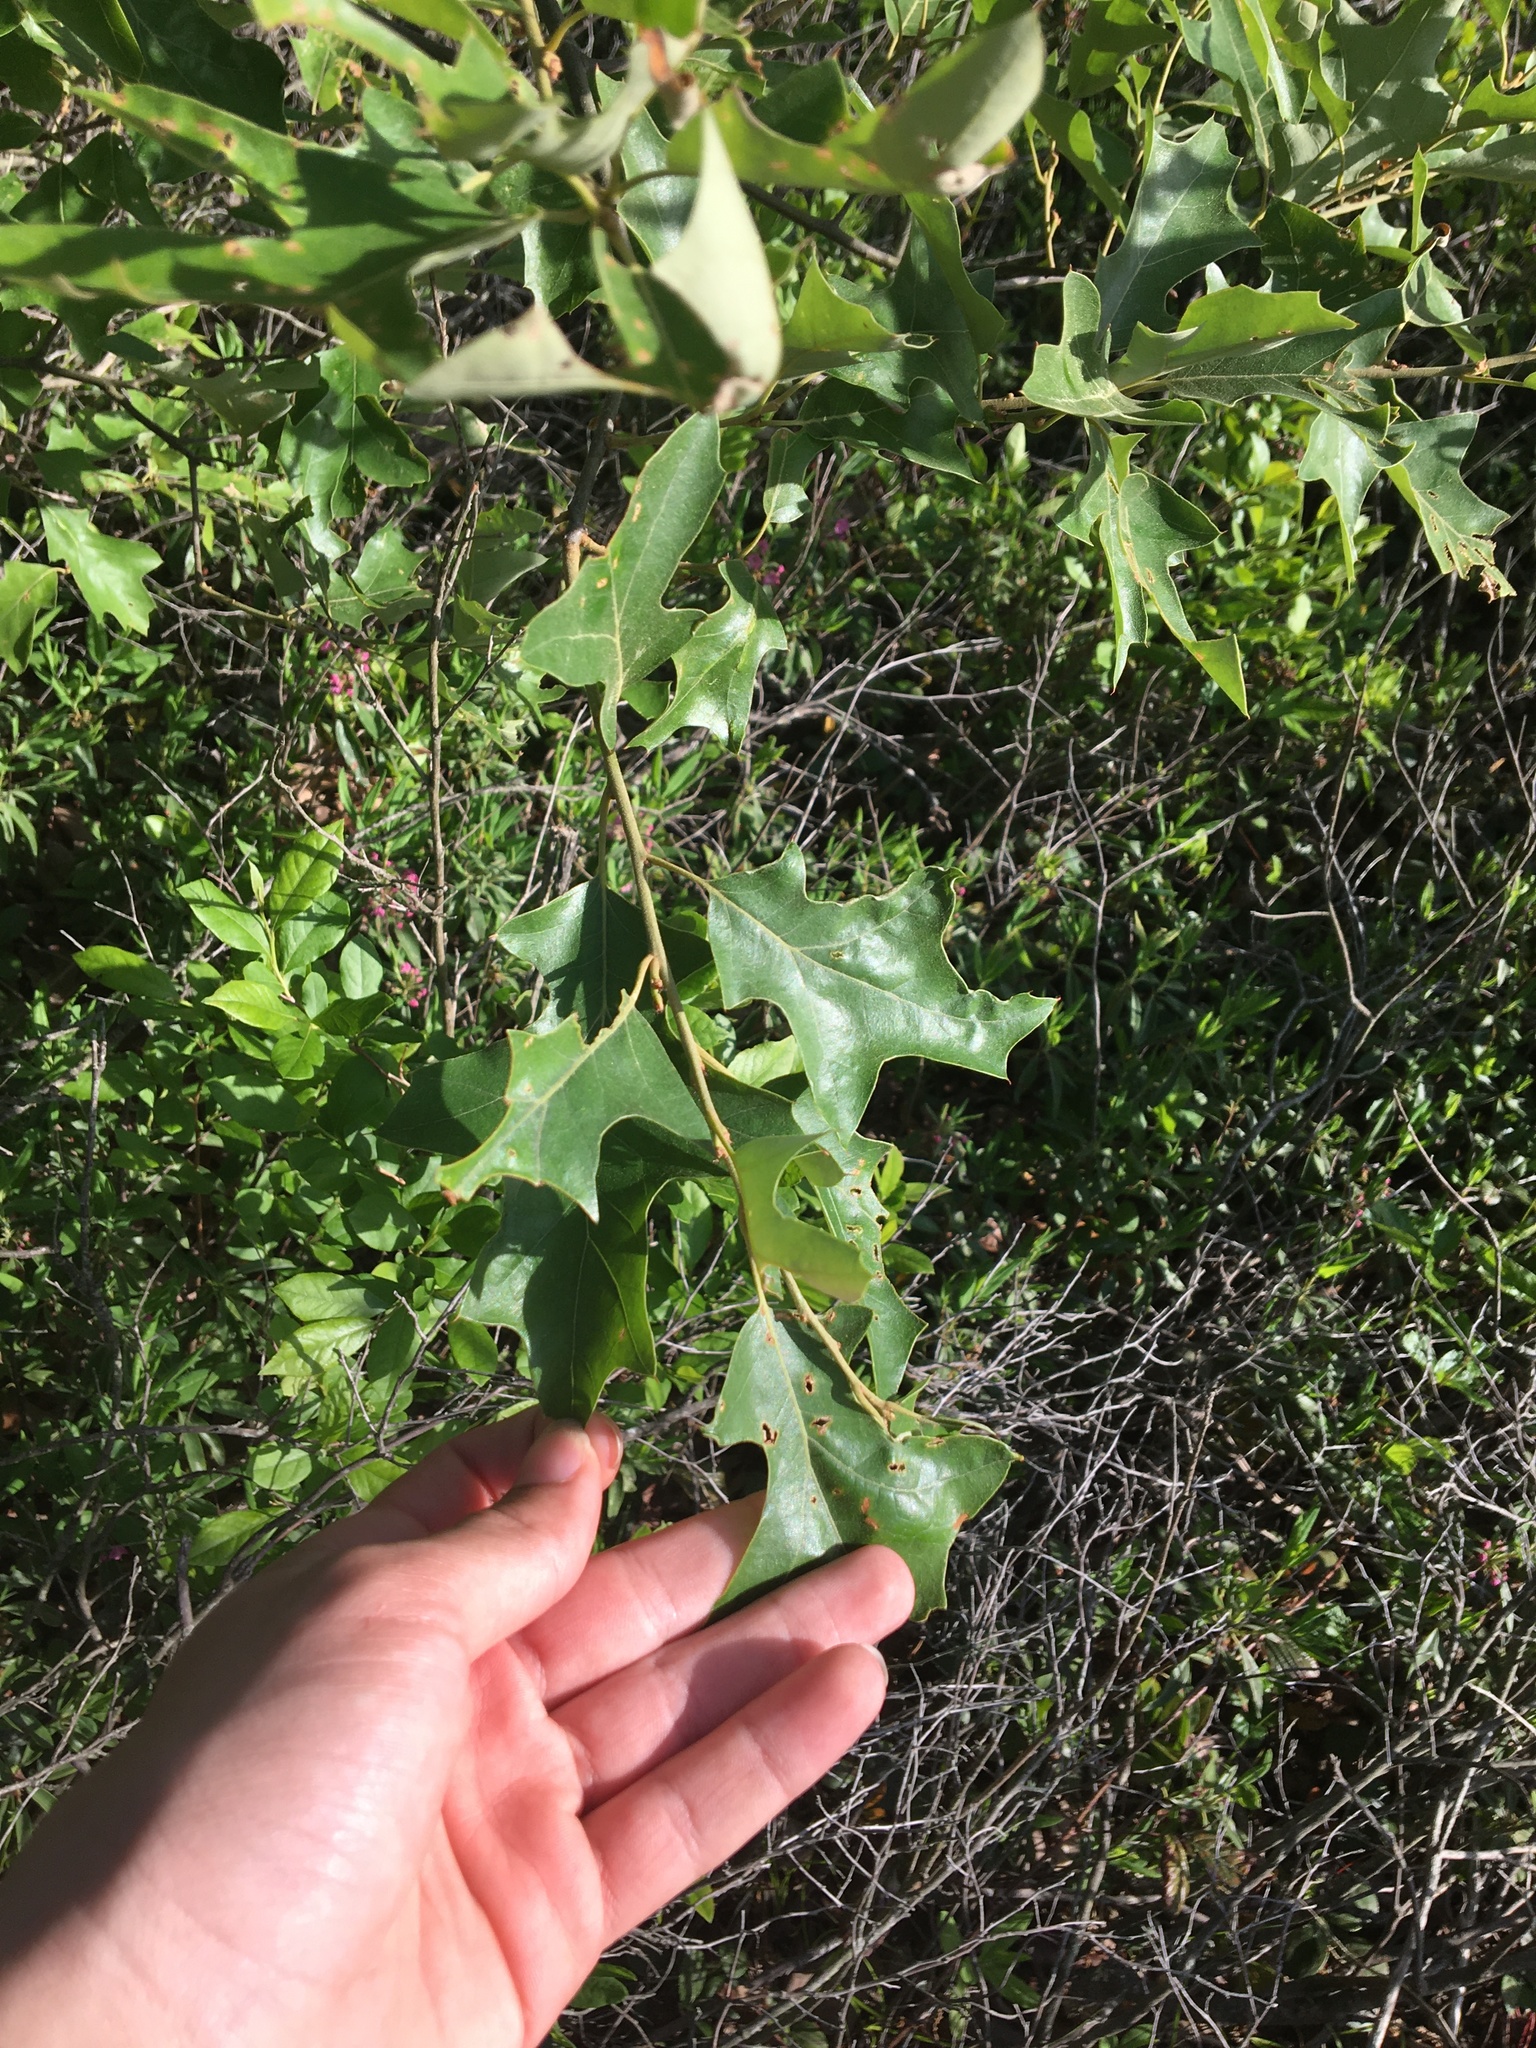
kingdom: Plantae
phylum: Tracheophyta
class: Magnoliopsida
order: Fagales
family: Fagaceae
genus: Quercus
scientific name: Quercus ilicifolia
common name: Bear oak
